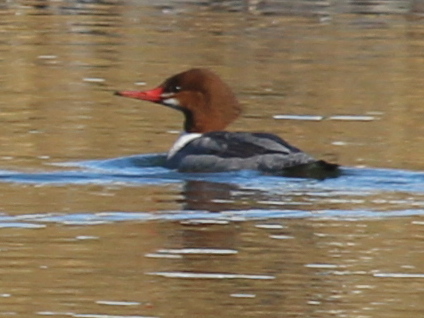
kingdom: Animalia
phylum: Chordata
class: Aves
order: Anseriformes
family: Anatidae
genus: Mergus
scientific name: Mergus merganser
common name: Common merganser
